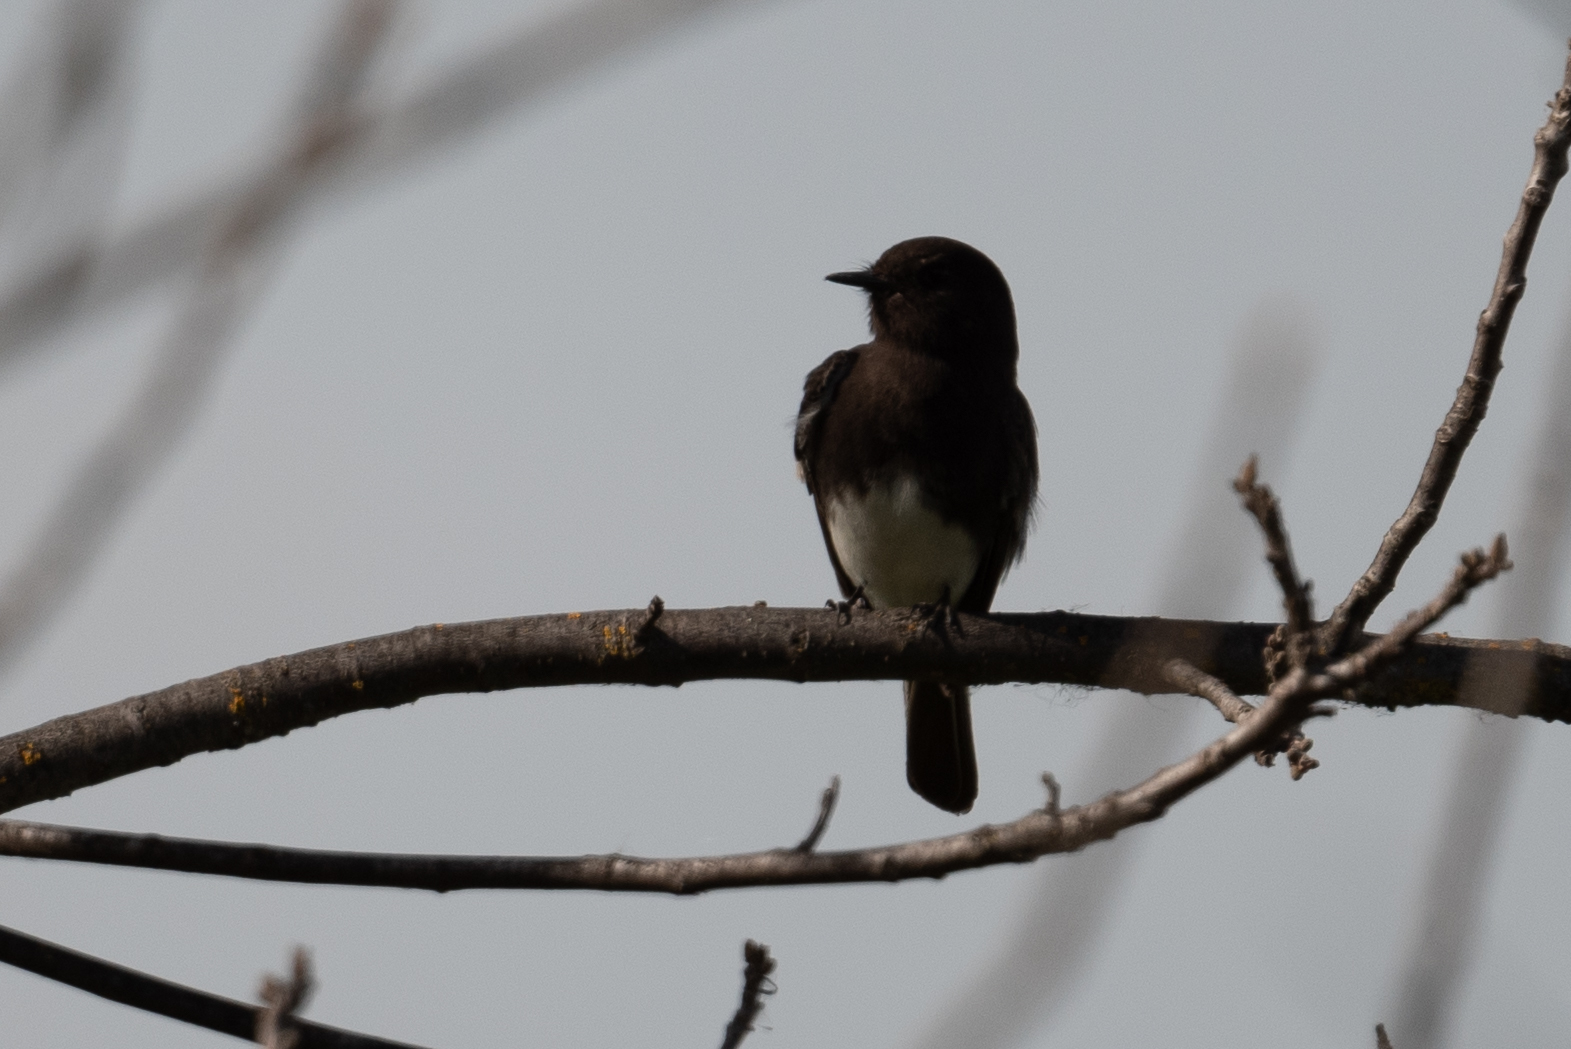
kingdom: Animalia
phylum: Chordata
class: Aves
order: Passeriformes
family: Tyrannidae
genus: Sayornis
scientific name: Sayornis nigricans
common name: Black phoebe
